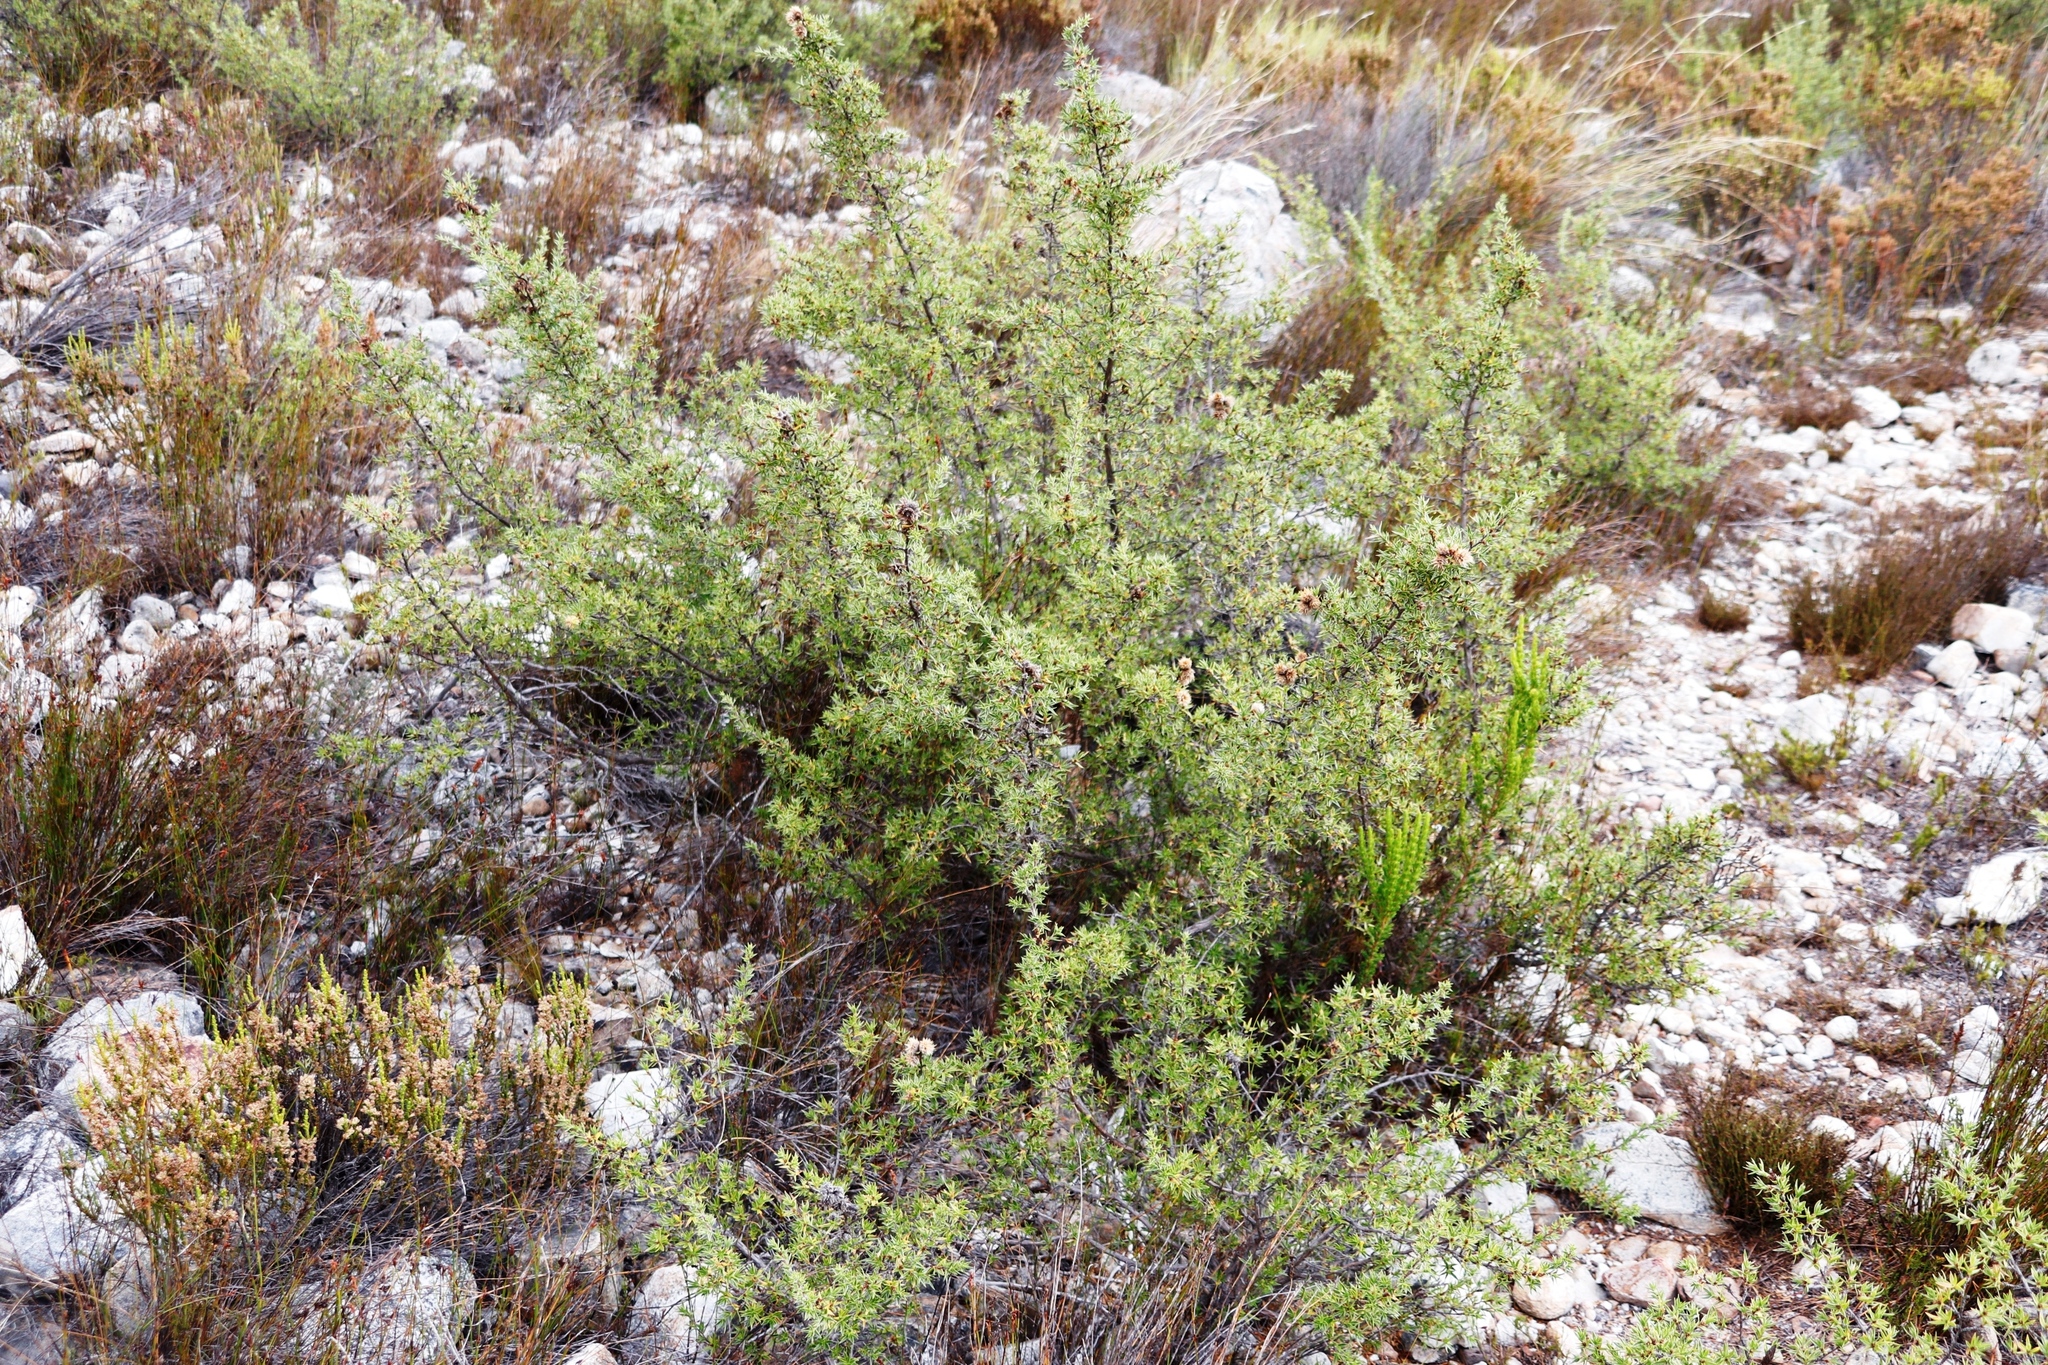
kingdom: Plantae
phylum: Tracheophyta
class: Magnoliopsida
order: Rosales
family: Rosaceae
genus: Cliffortia
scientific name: Cliffortia ruscifolia
